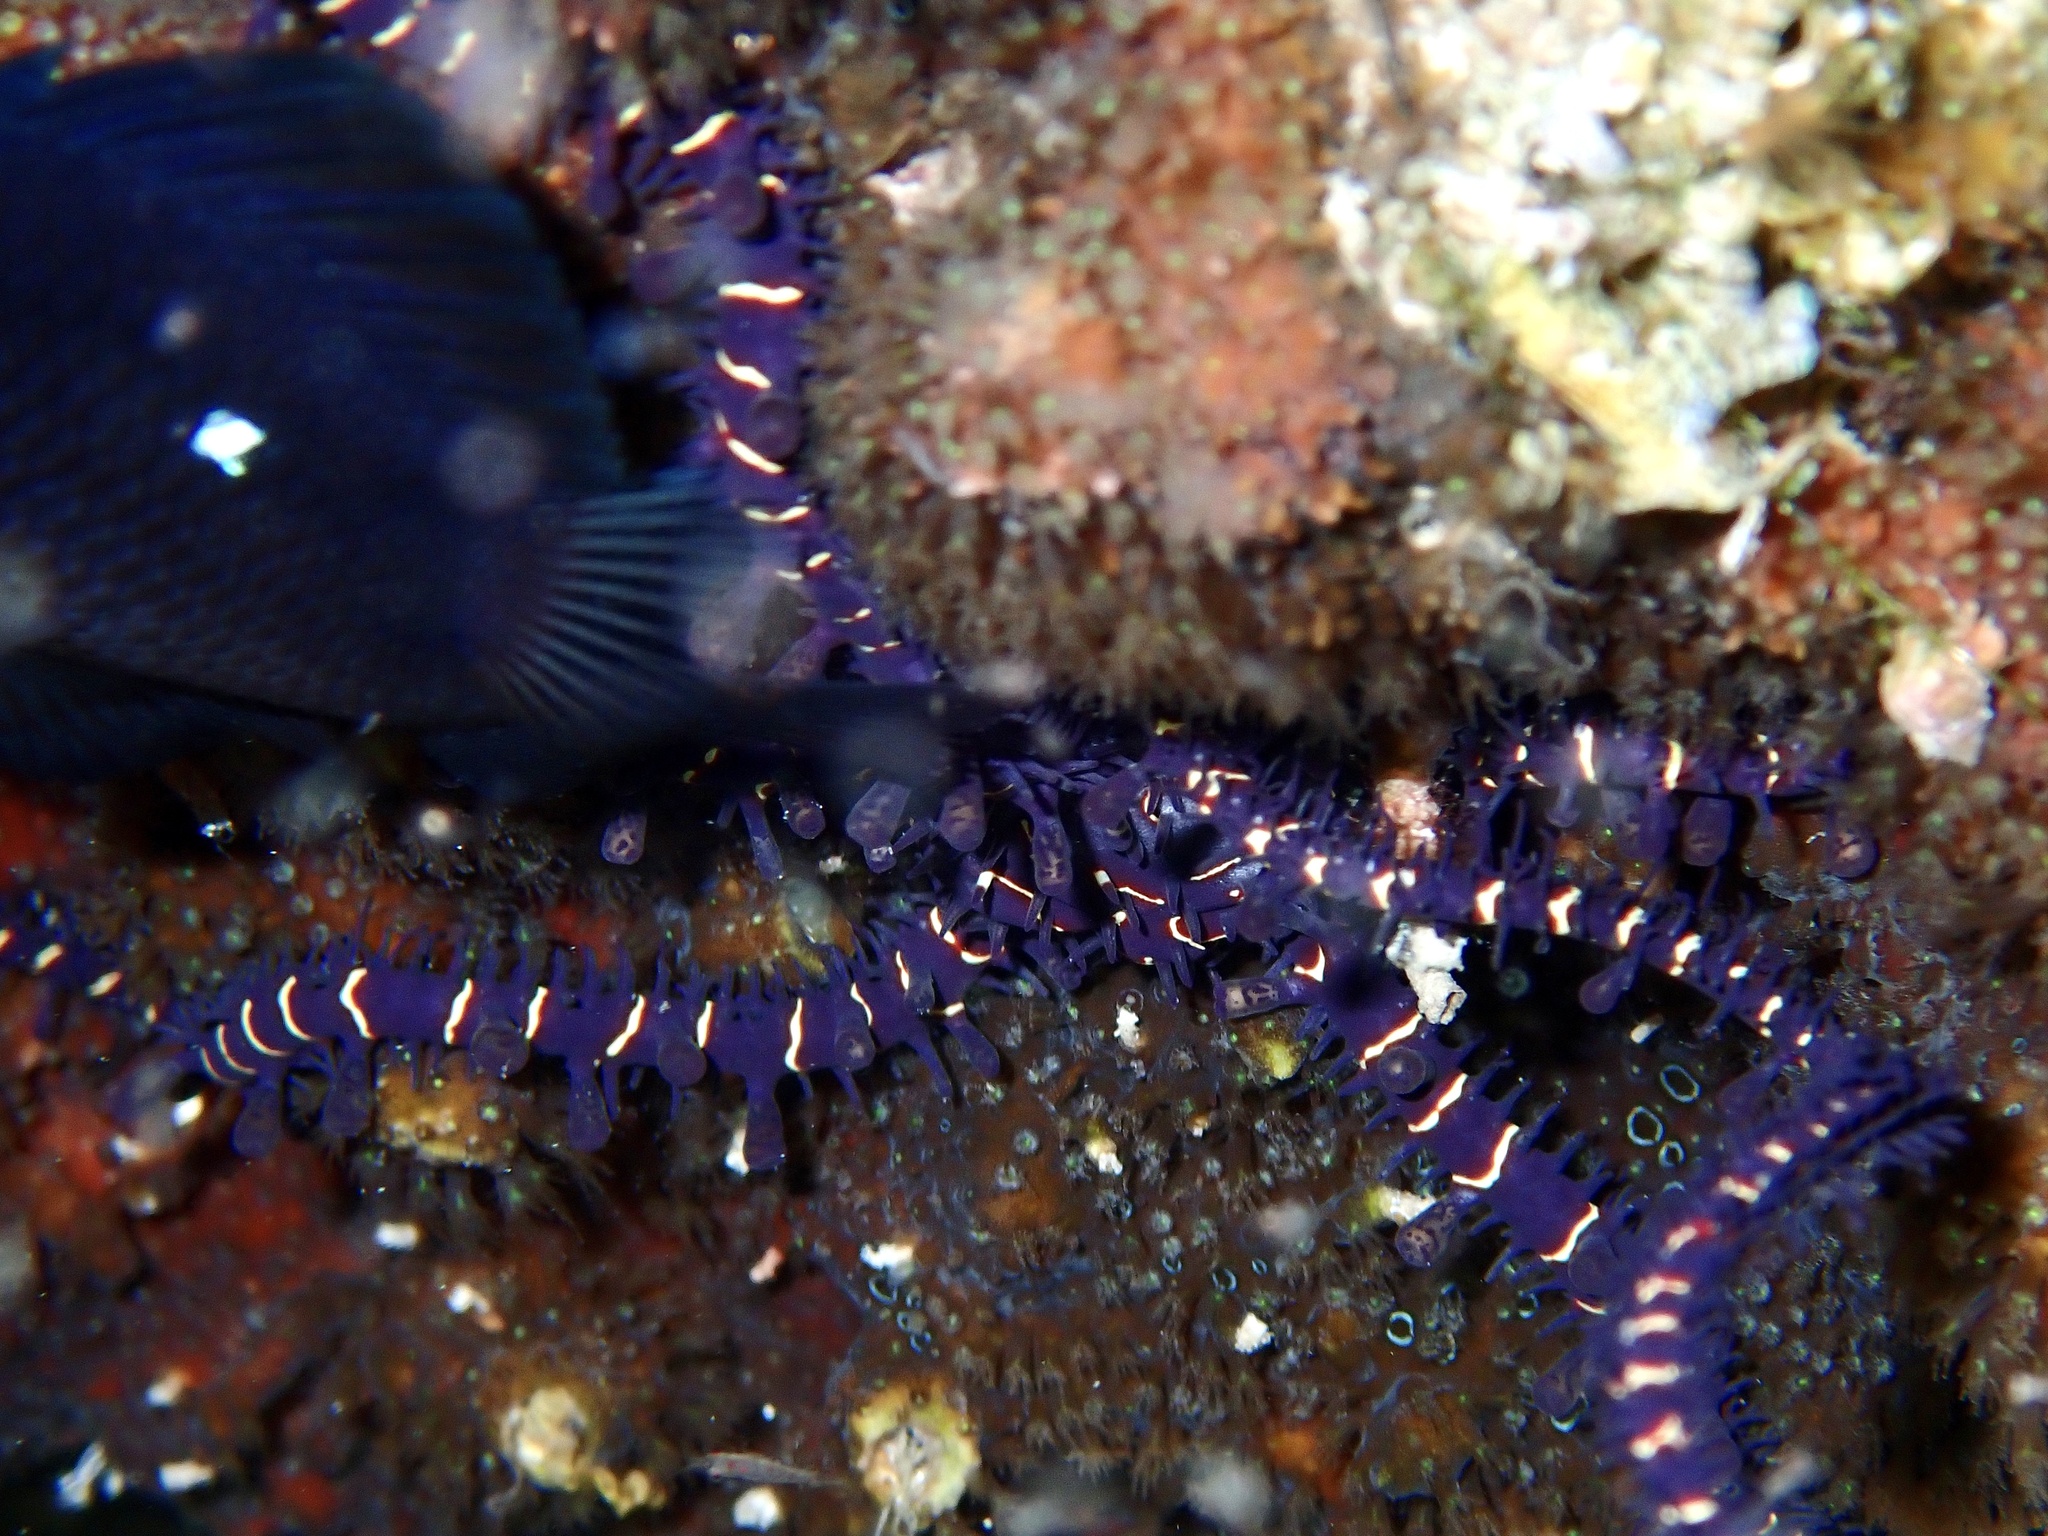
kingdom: Animalia
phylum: Echinodermata
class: Ophiuroidea
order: Ophiacanthida
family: Ophiocomidae
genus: Ophiomastix
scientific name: Ophiomastix flaccida
